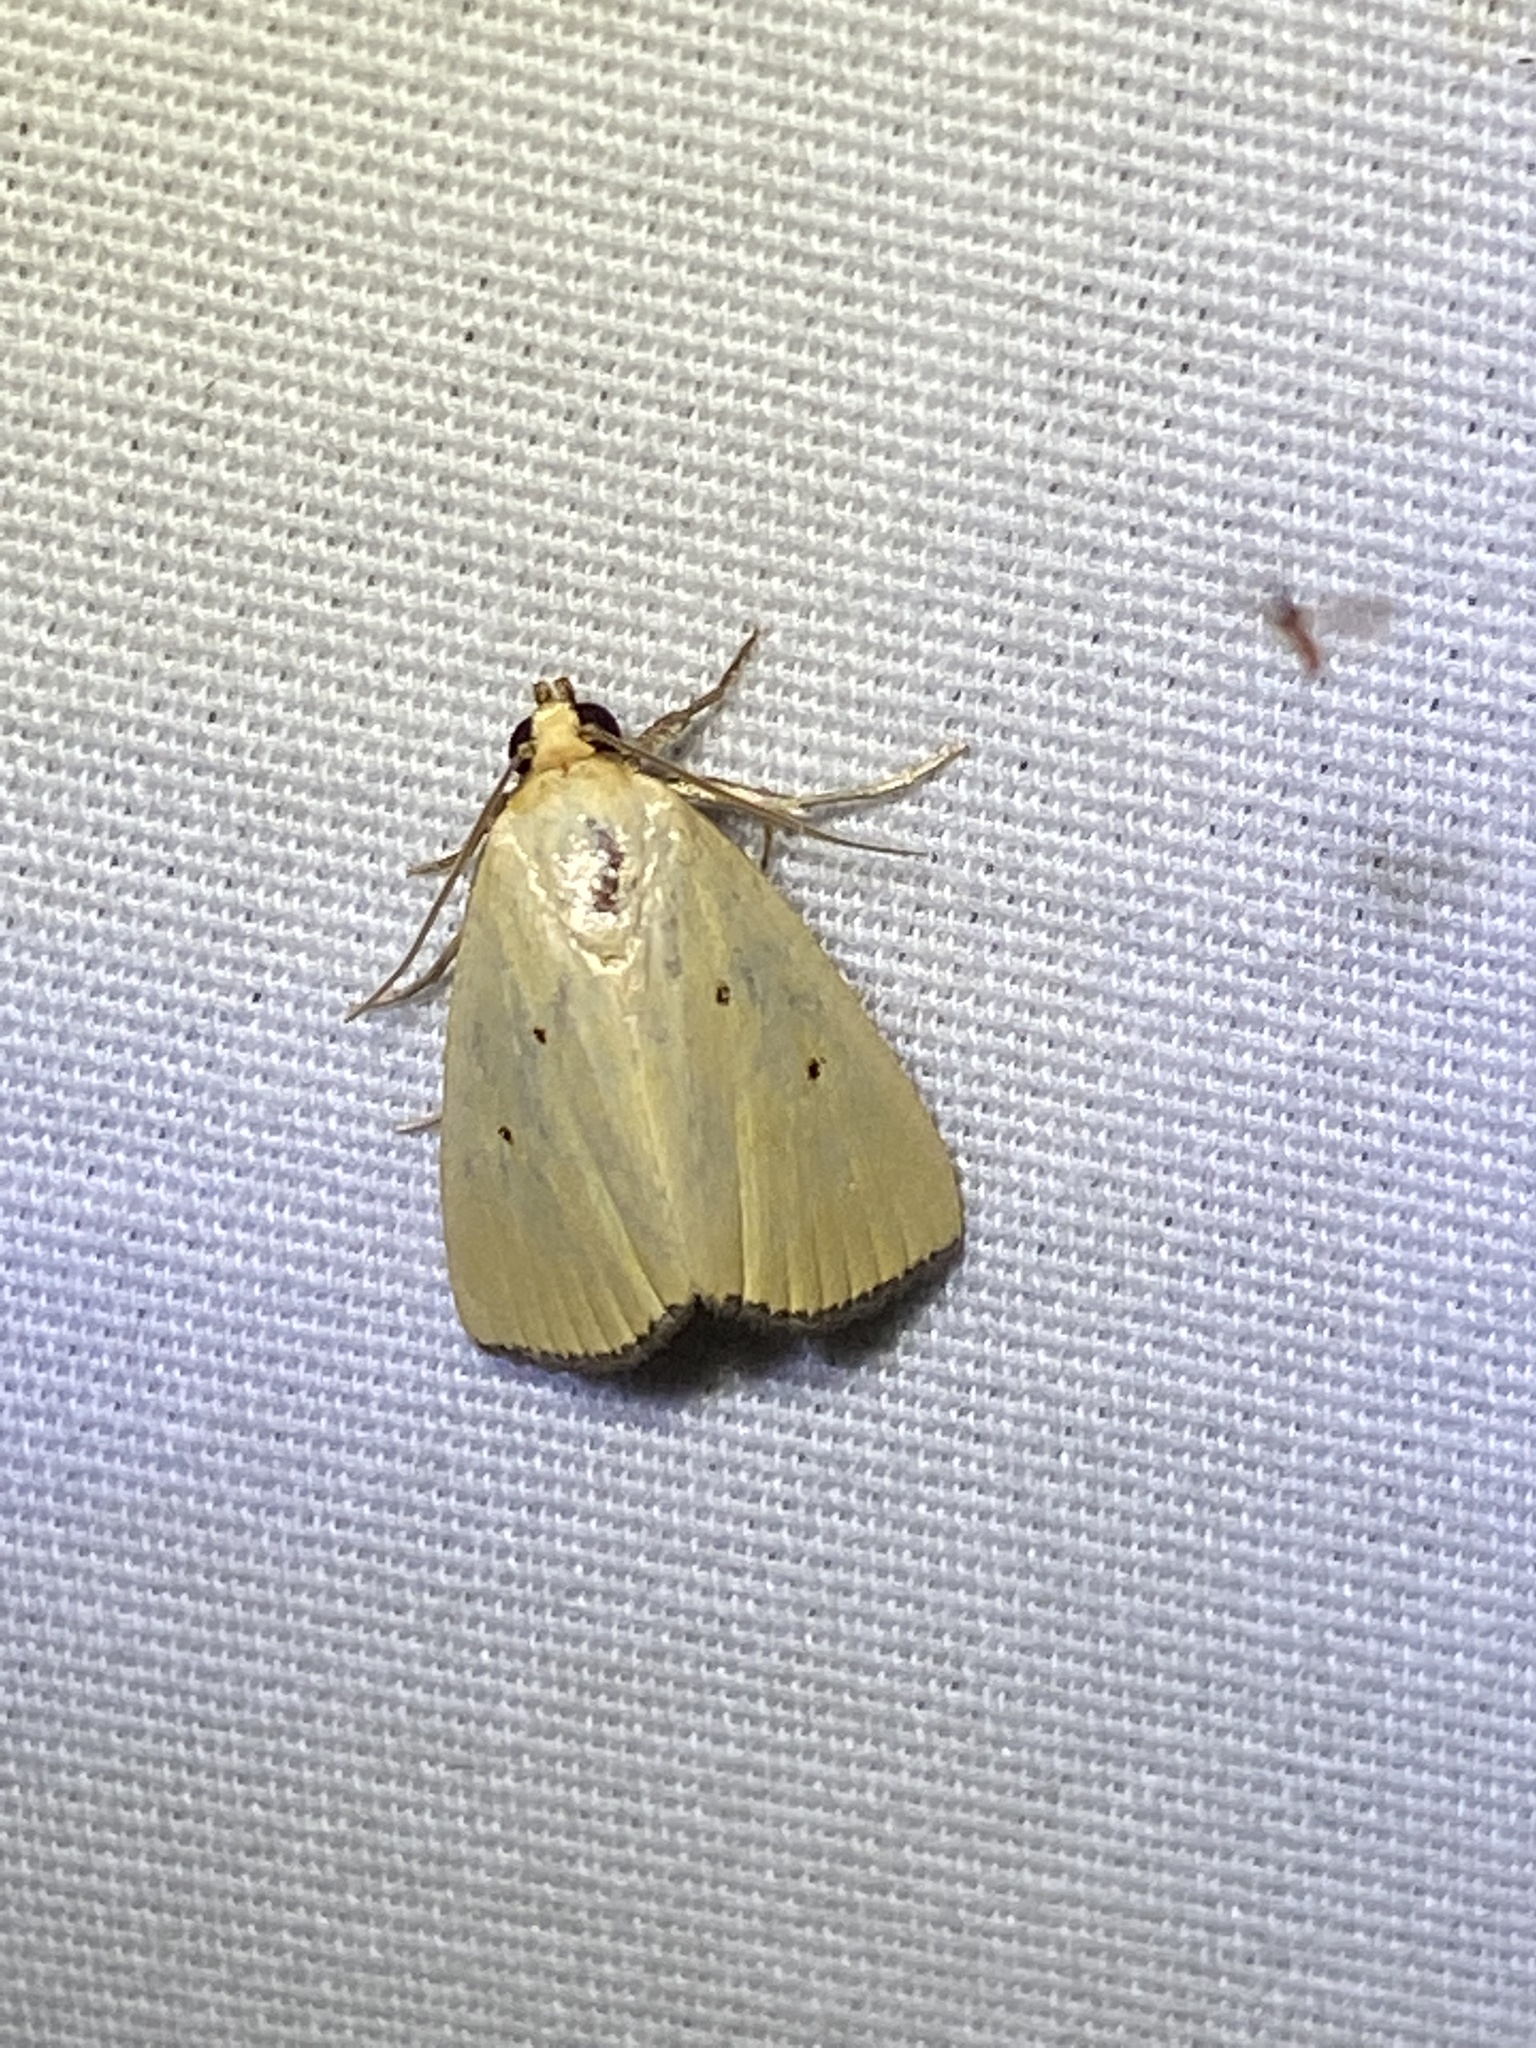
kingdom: Animalia
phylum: Arthropoda
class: Insecta
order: Lepidoptera
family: Noctuidae
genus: Marimatha
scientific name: Marimatha nigrofimbria
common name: Black-bordered lemon moth
